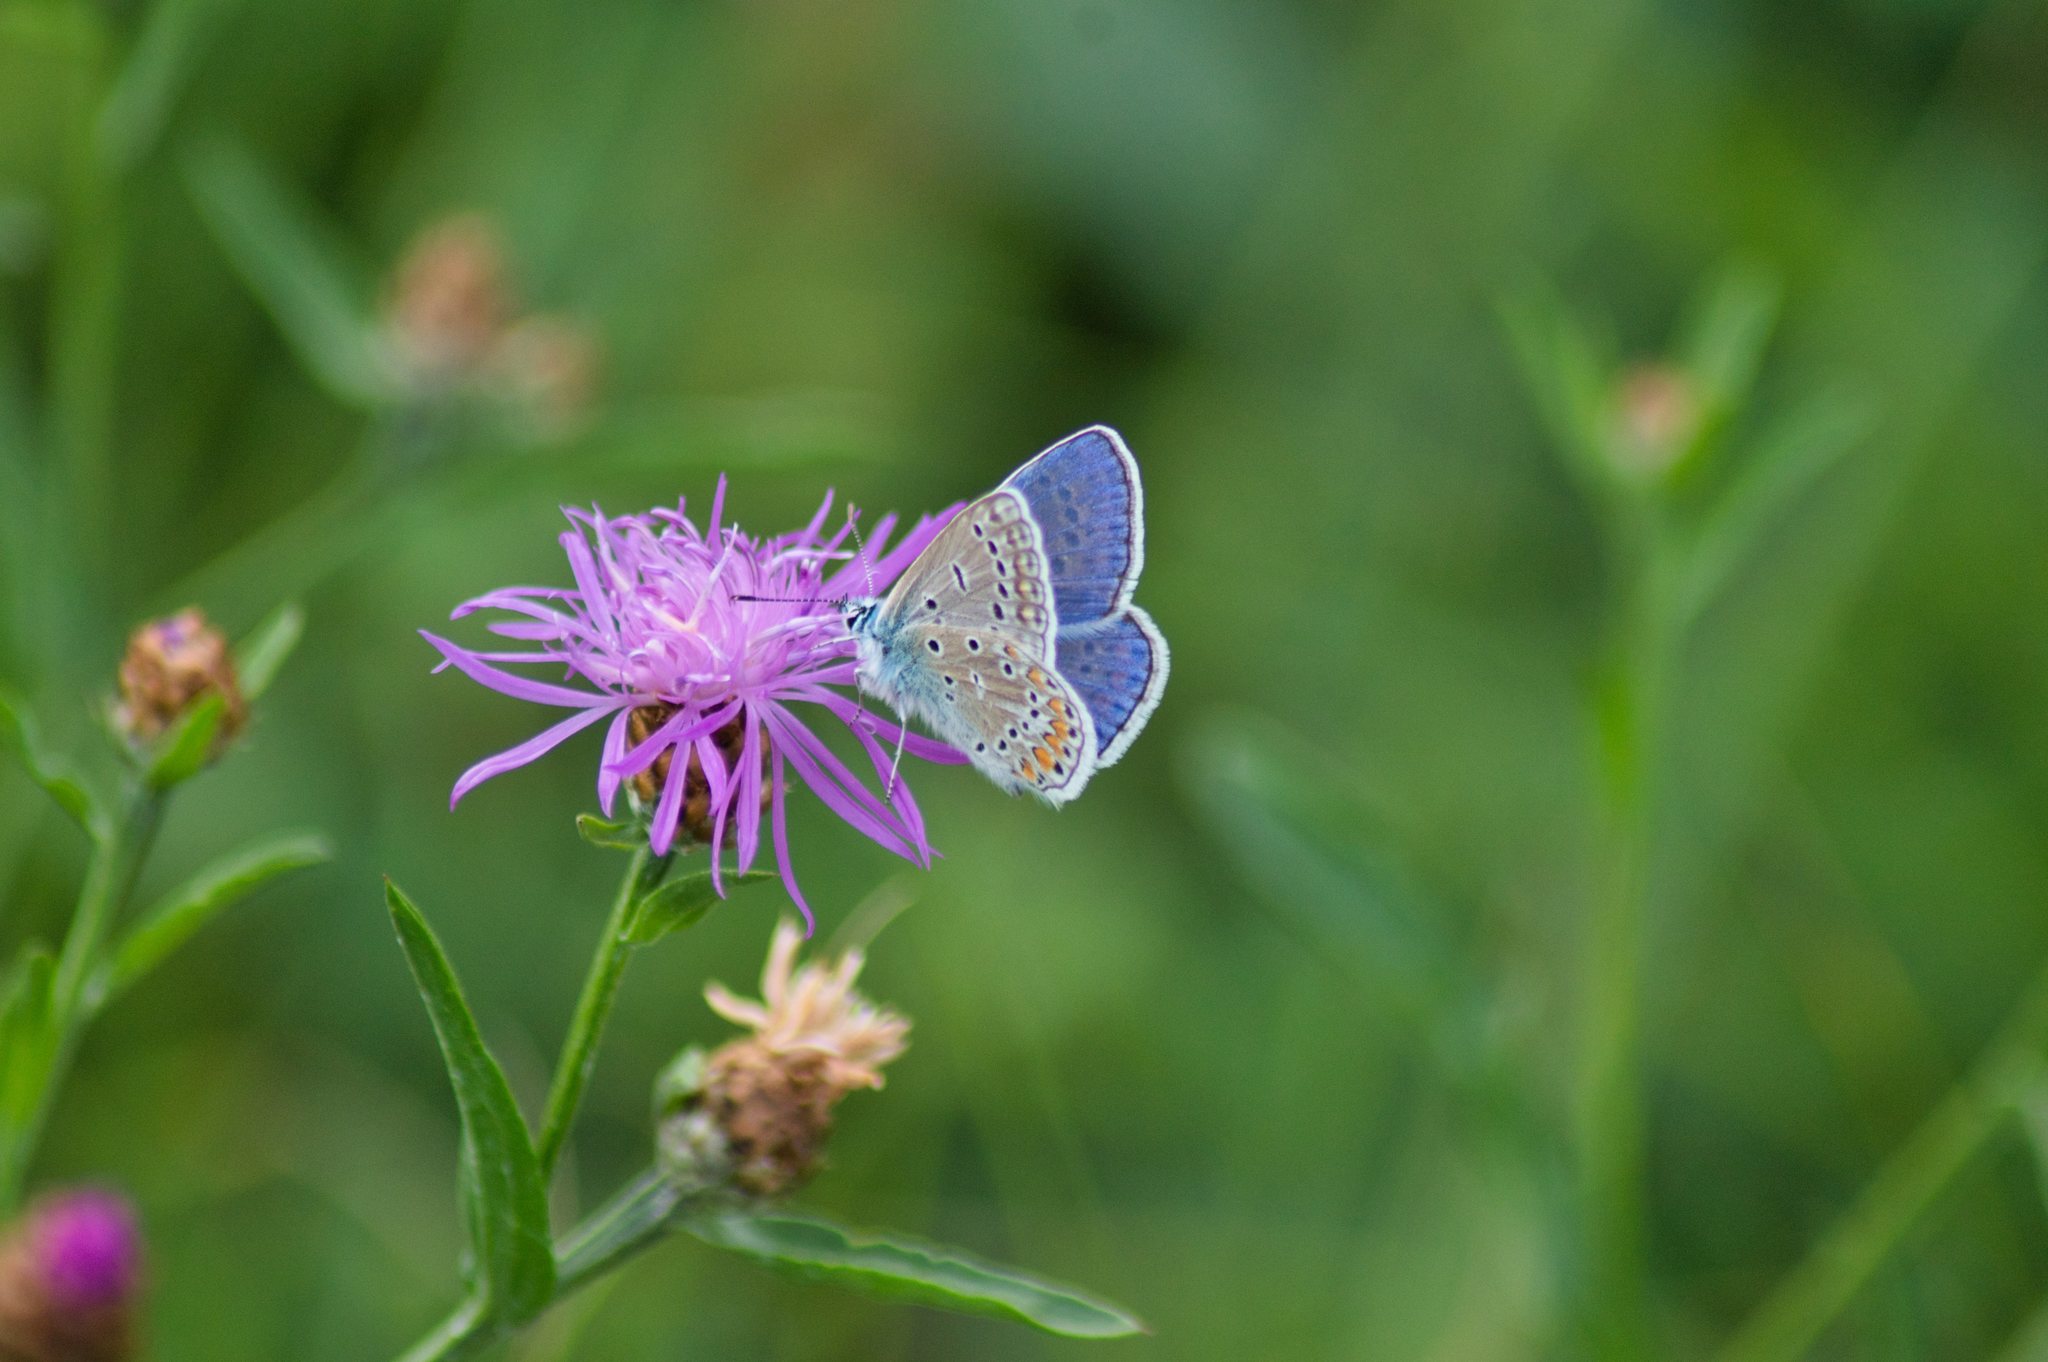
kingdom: Animalia
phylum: Arthropoda
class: Insecta
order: Lepidoptera
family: Lycaenidae
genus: Polyommatus
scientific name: Polyommatus icarus
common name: Common blue
